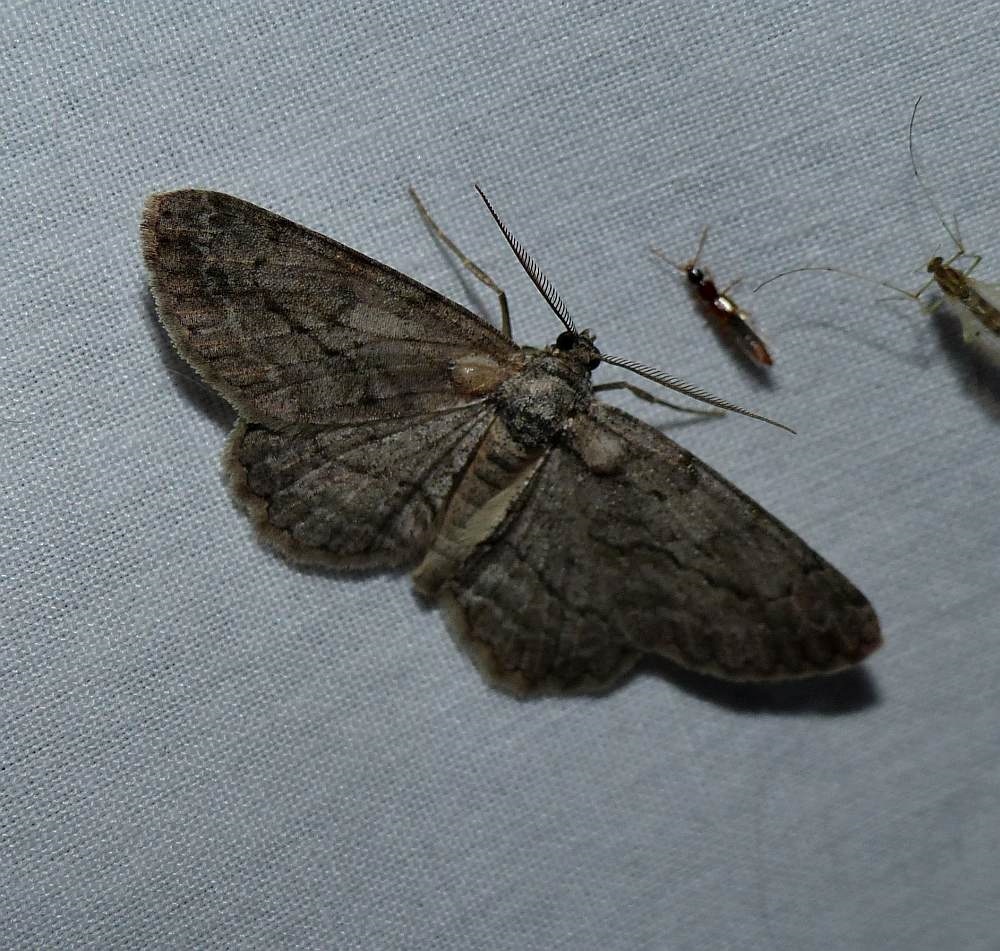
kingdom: Animalia
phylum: Arthropoda
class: Insecta
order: Lepidoptera
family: Geometridae
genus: Anavitrinella
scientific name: Anavitrinella pampinaria
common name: Common gray
